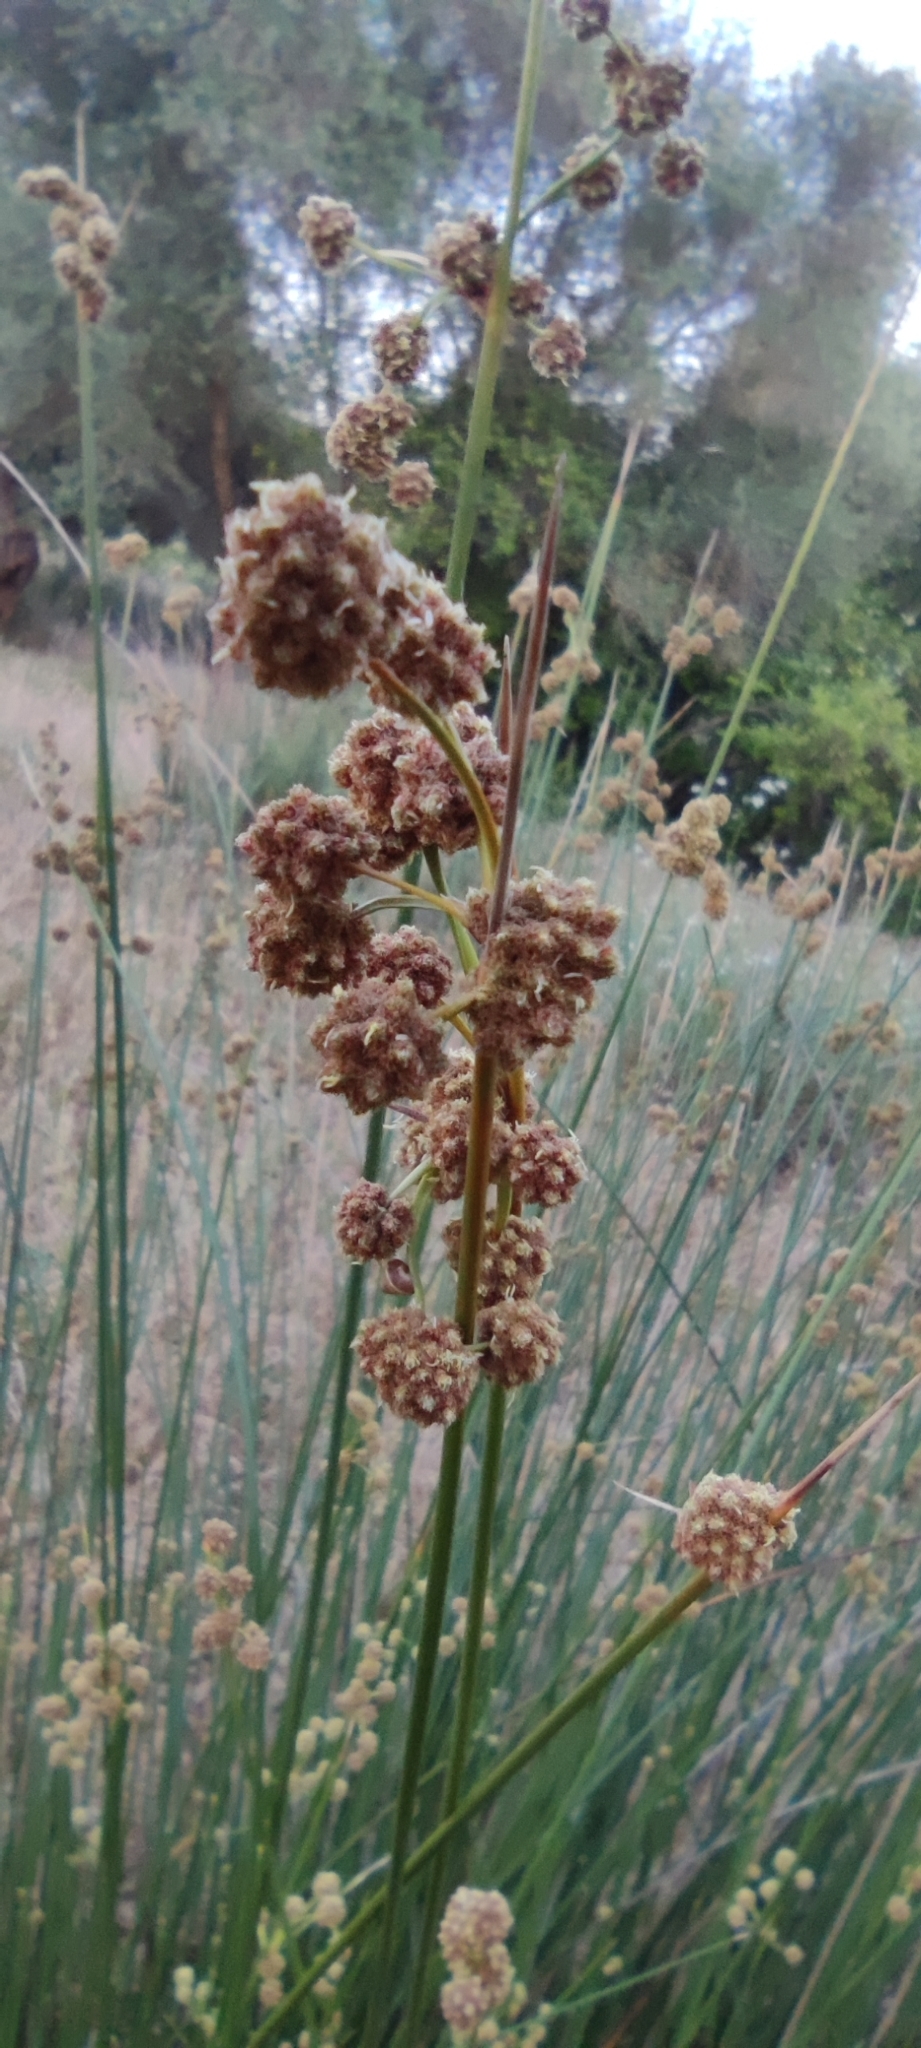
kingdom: Plantae
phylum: Tracheophyta
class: Liliopsida
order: Poales
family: Cyperaceae
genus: Scirpoides
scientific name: Scirpoides holoschoenus
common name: Round-headed club-rush
